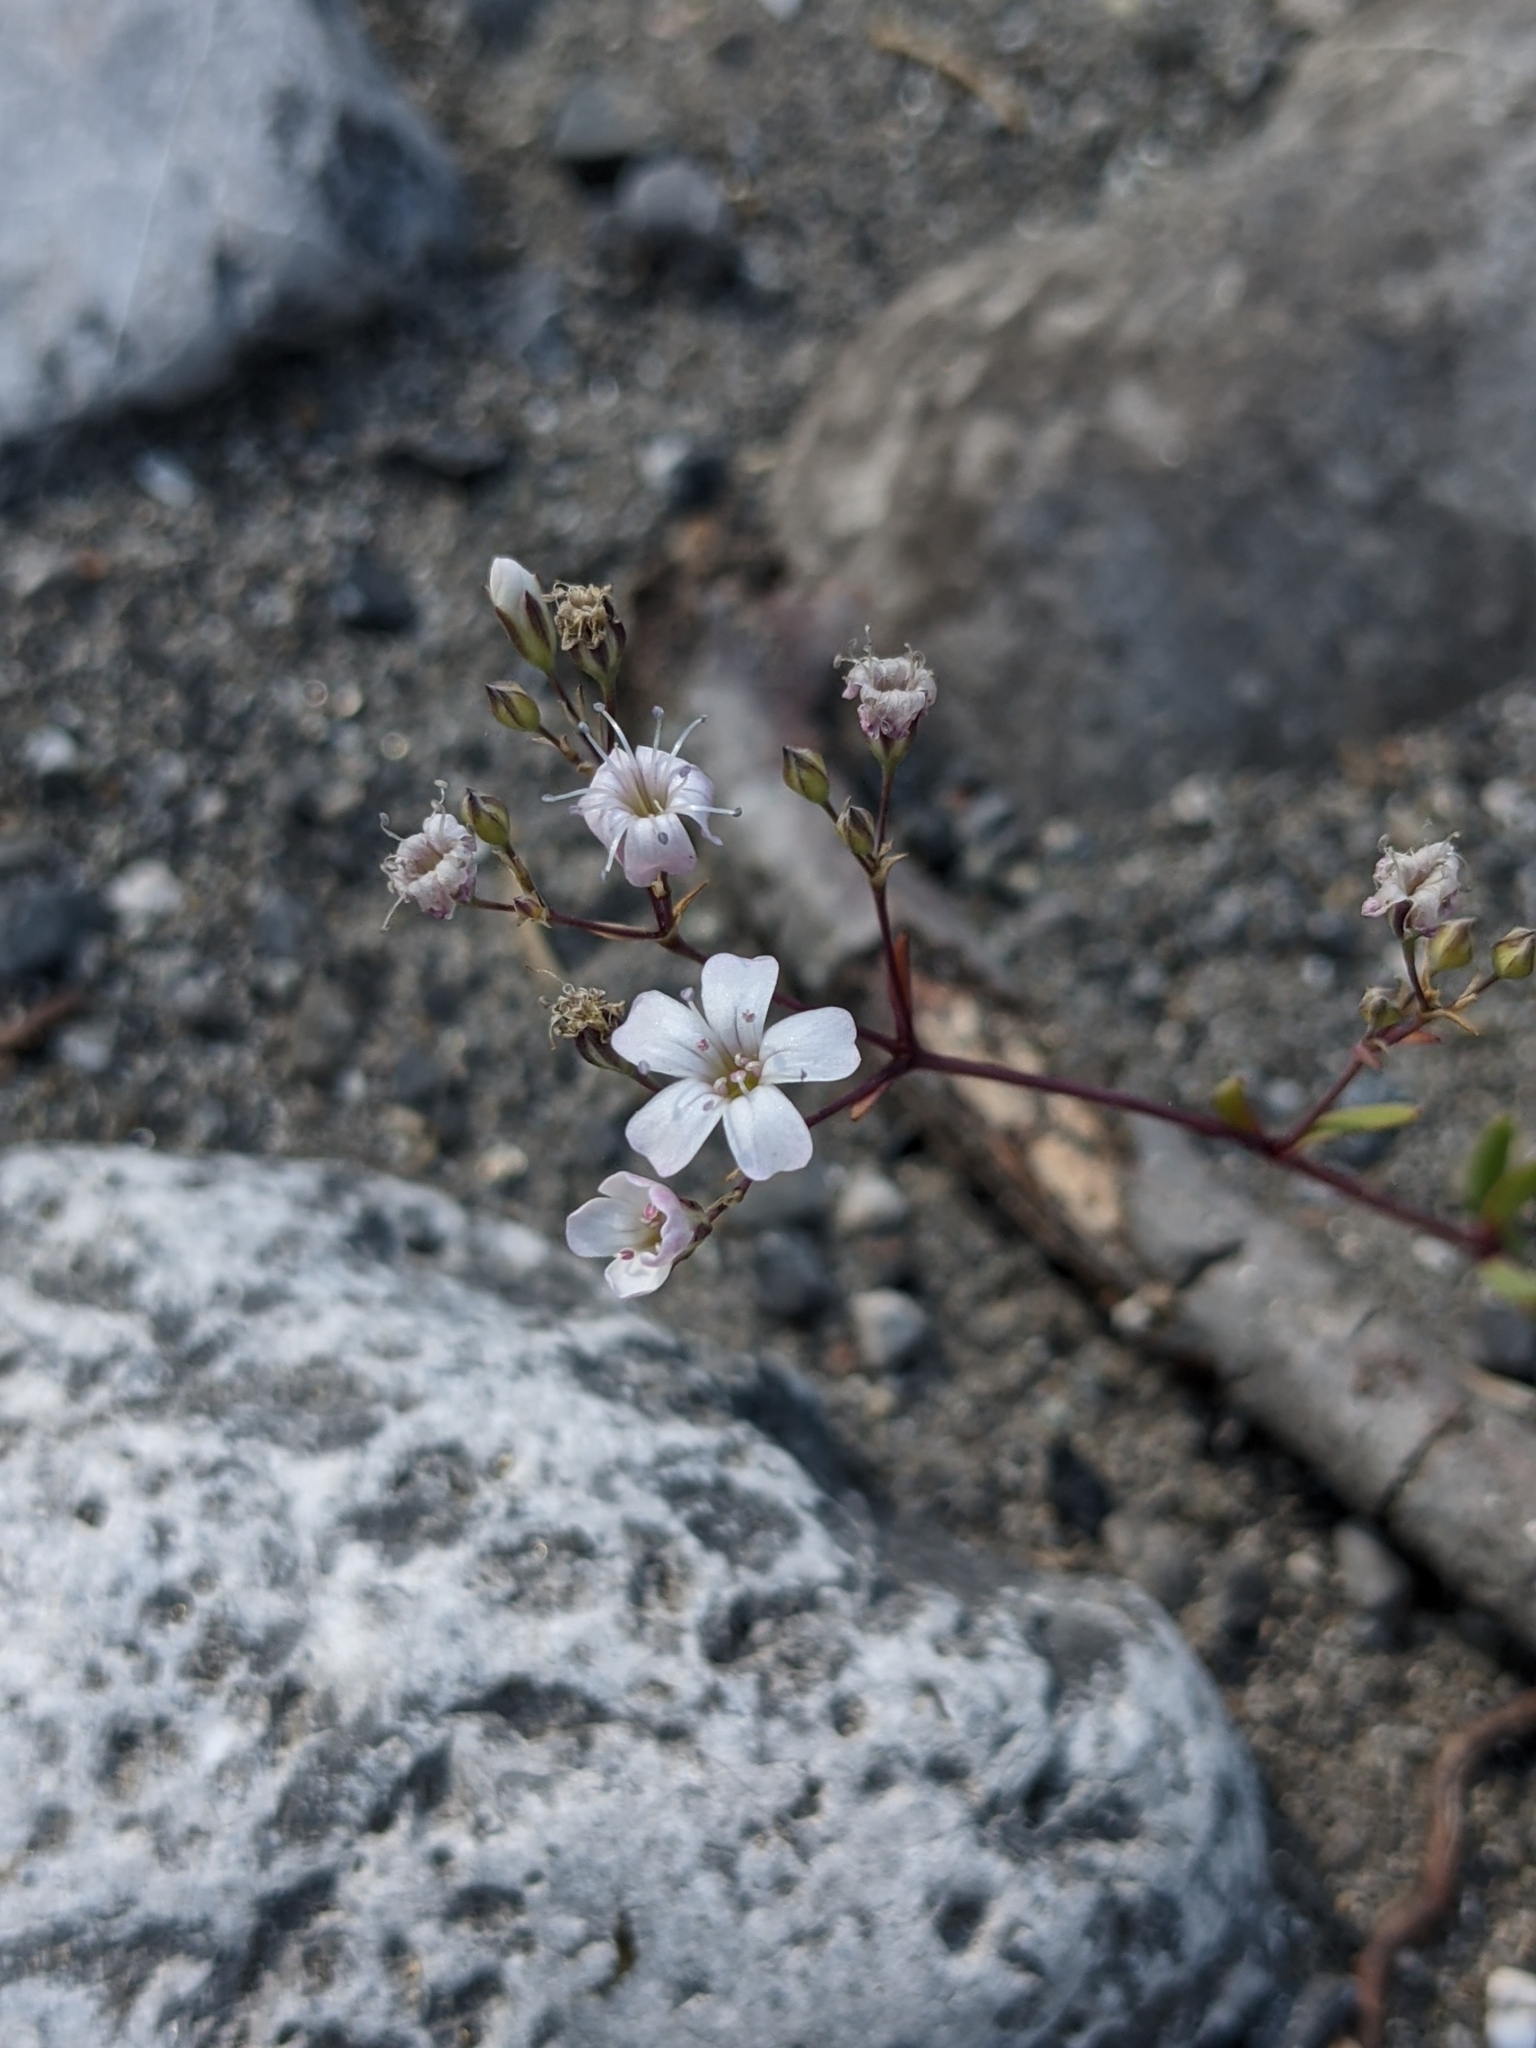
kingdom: Plantae
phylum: Tracheophyta
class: Magnoliopsida
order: Caryophyllales
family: Caryophyllaceae
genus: Gypsophila
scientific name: Gypsophila repens
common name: Creeping baby's-breath
